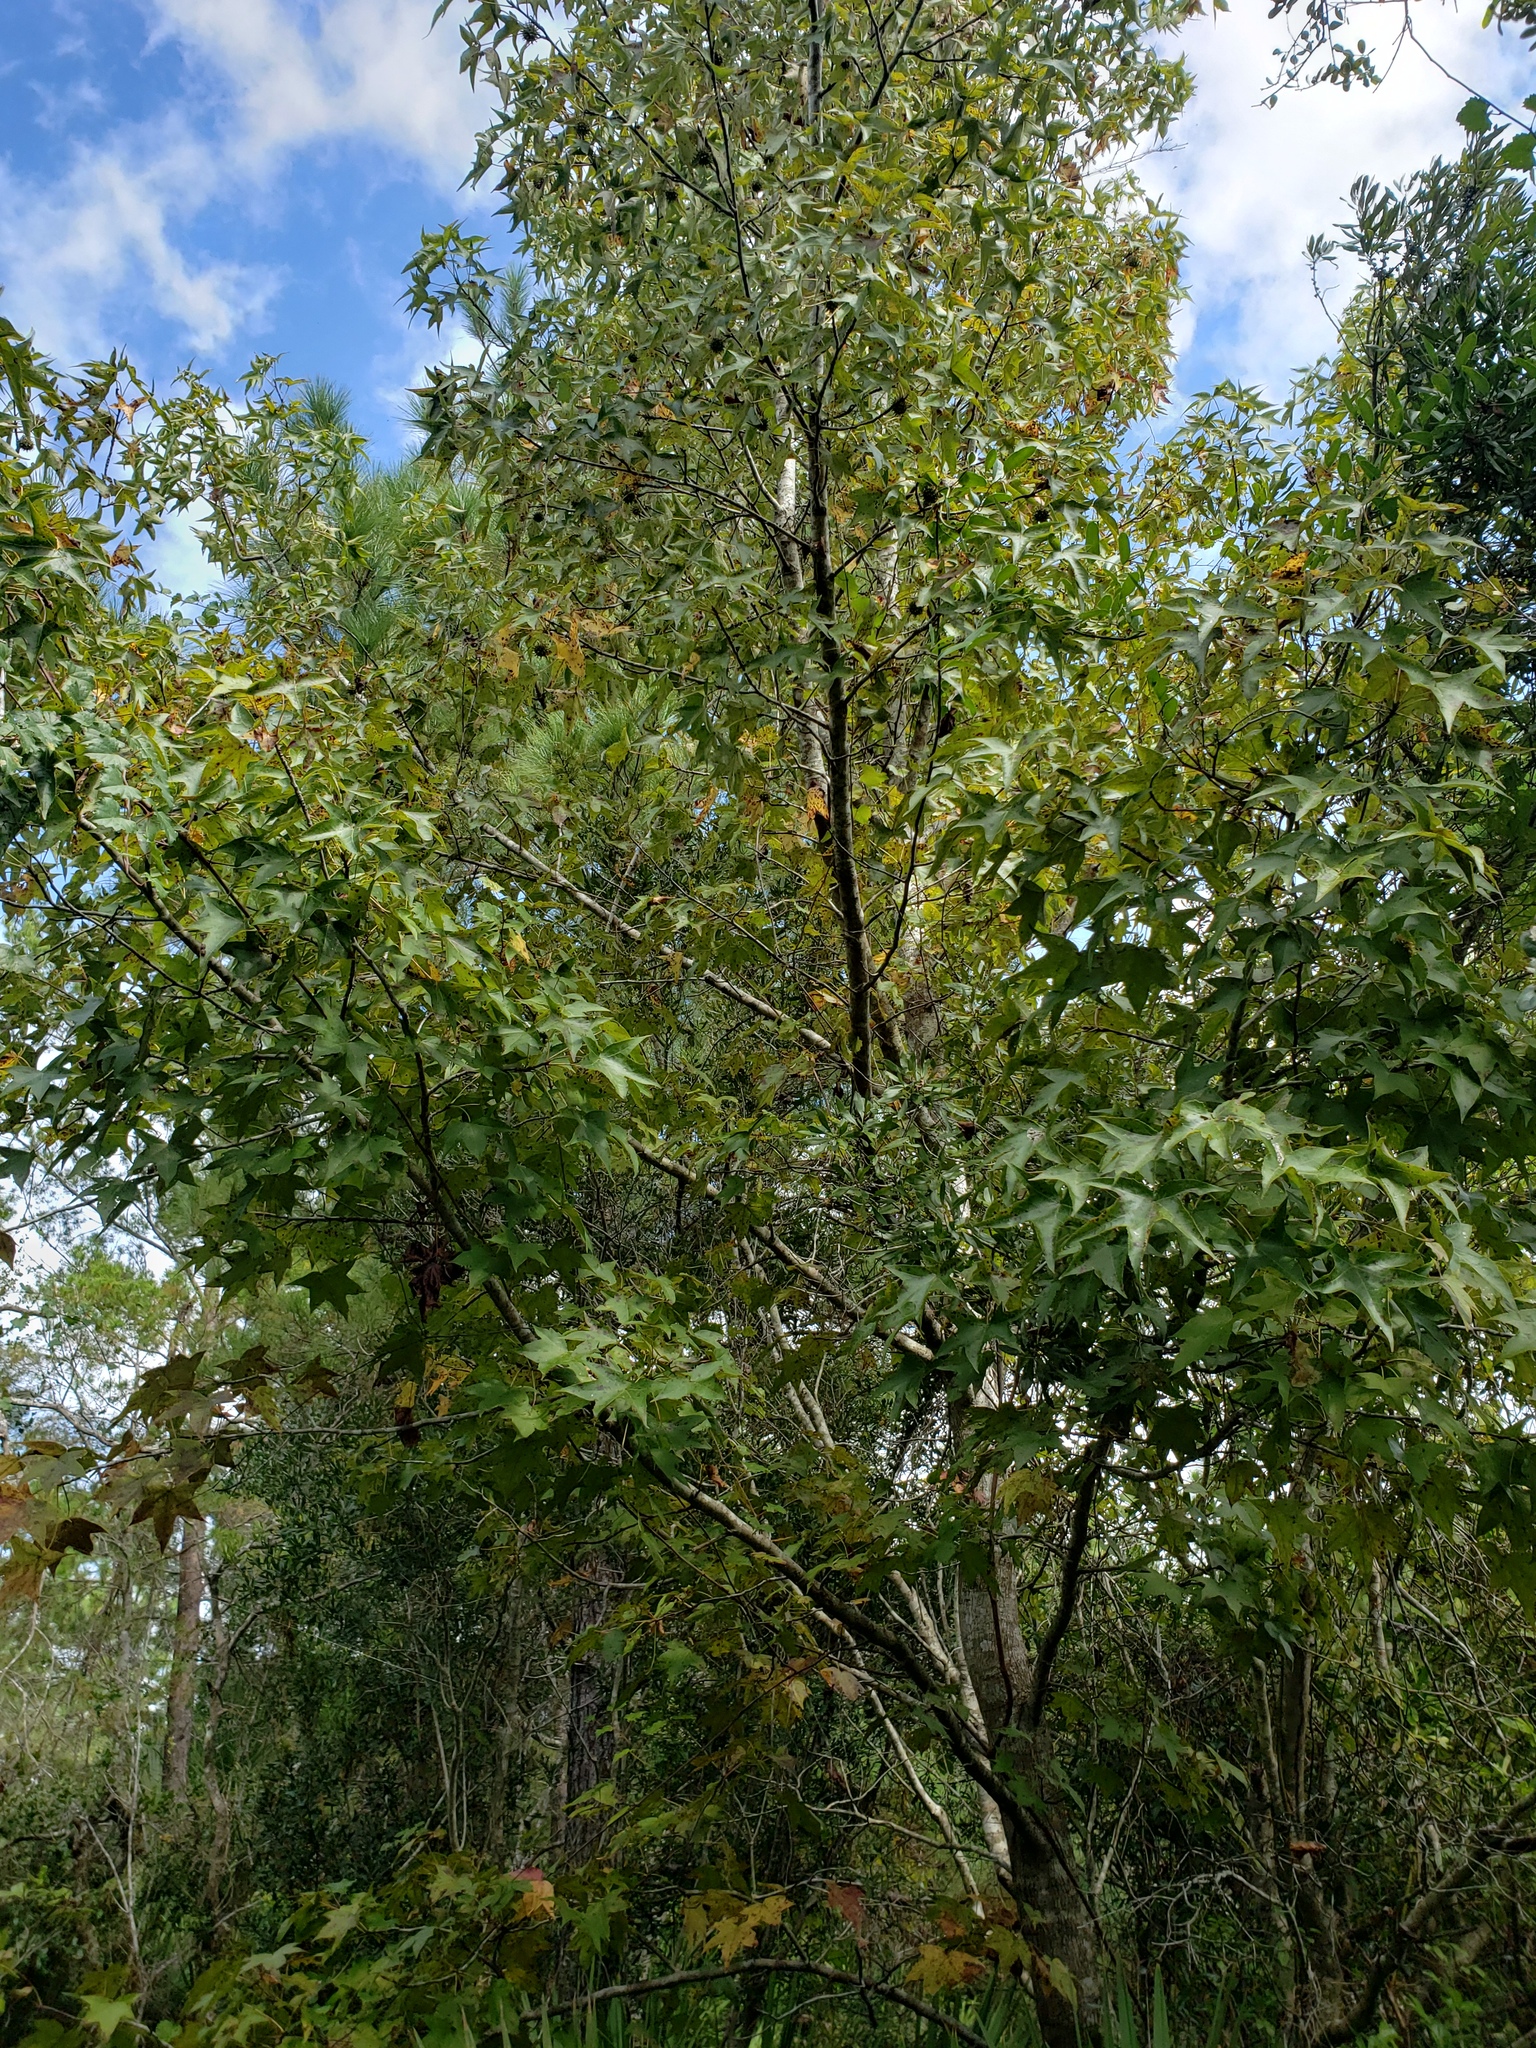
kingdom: Plantae
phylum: Tracheophyta
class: Magnoliopsida
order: Saxifragales
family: Altingiaceae
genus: Liquidambar
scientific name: Liquidambar styraciflua
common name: Sweet gum
